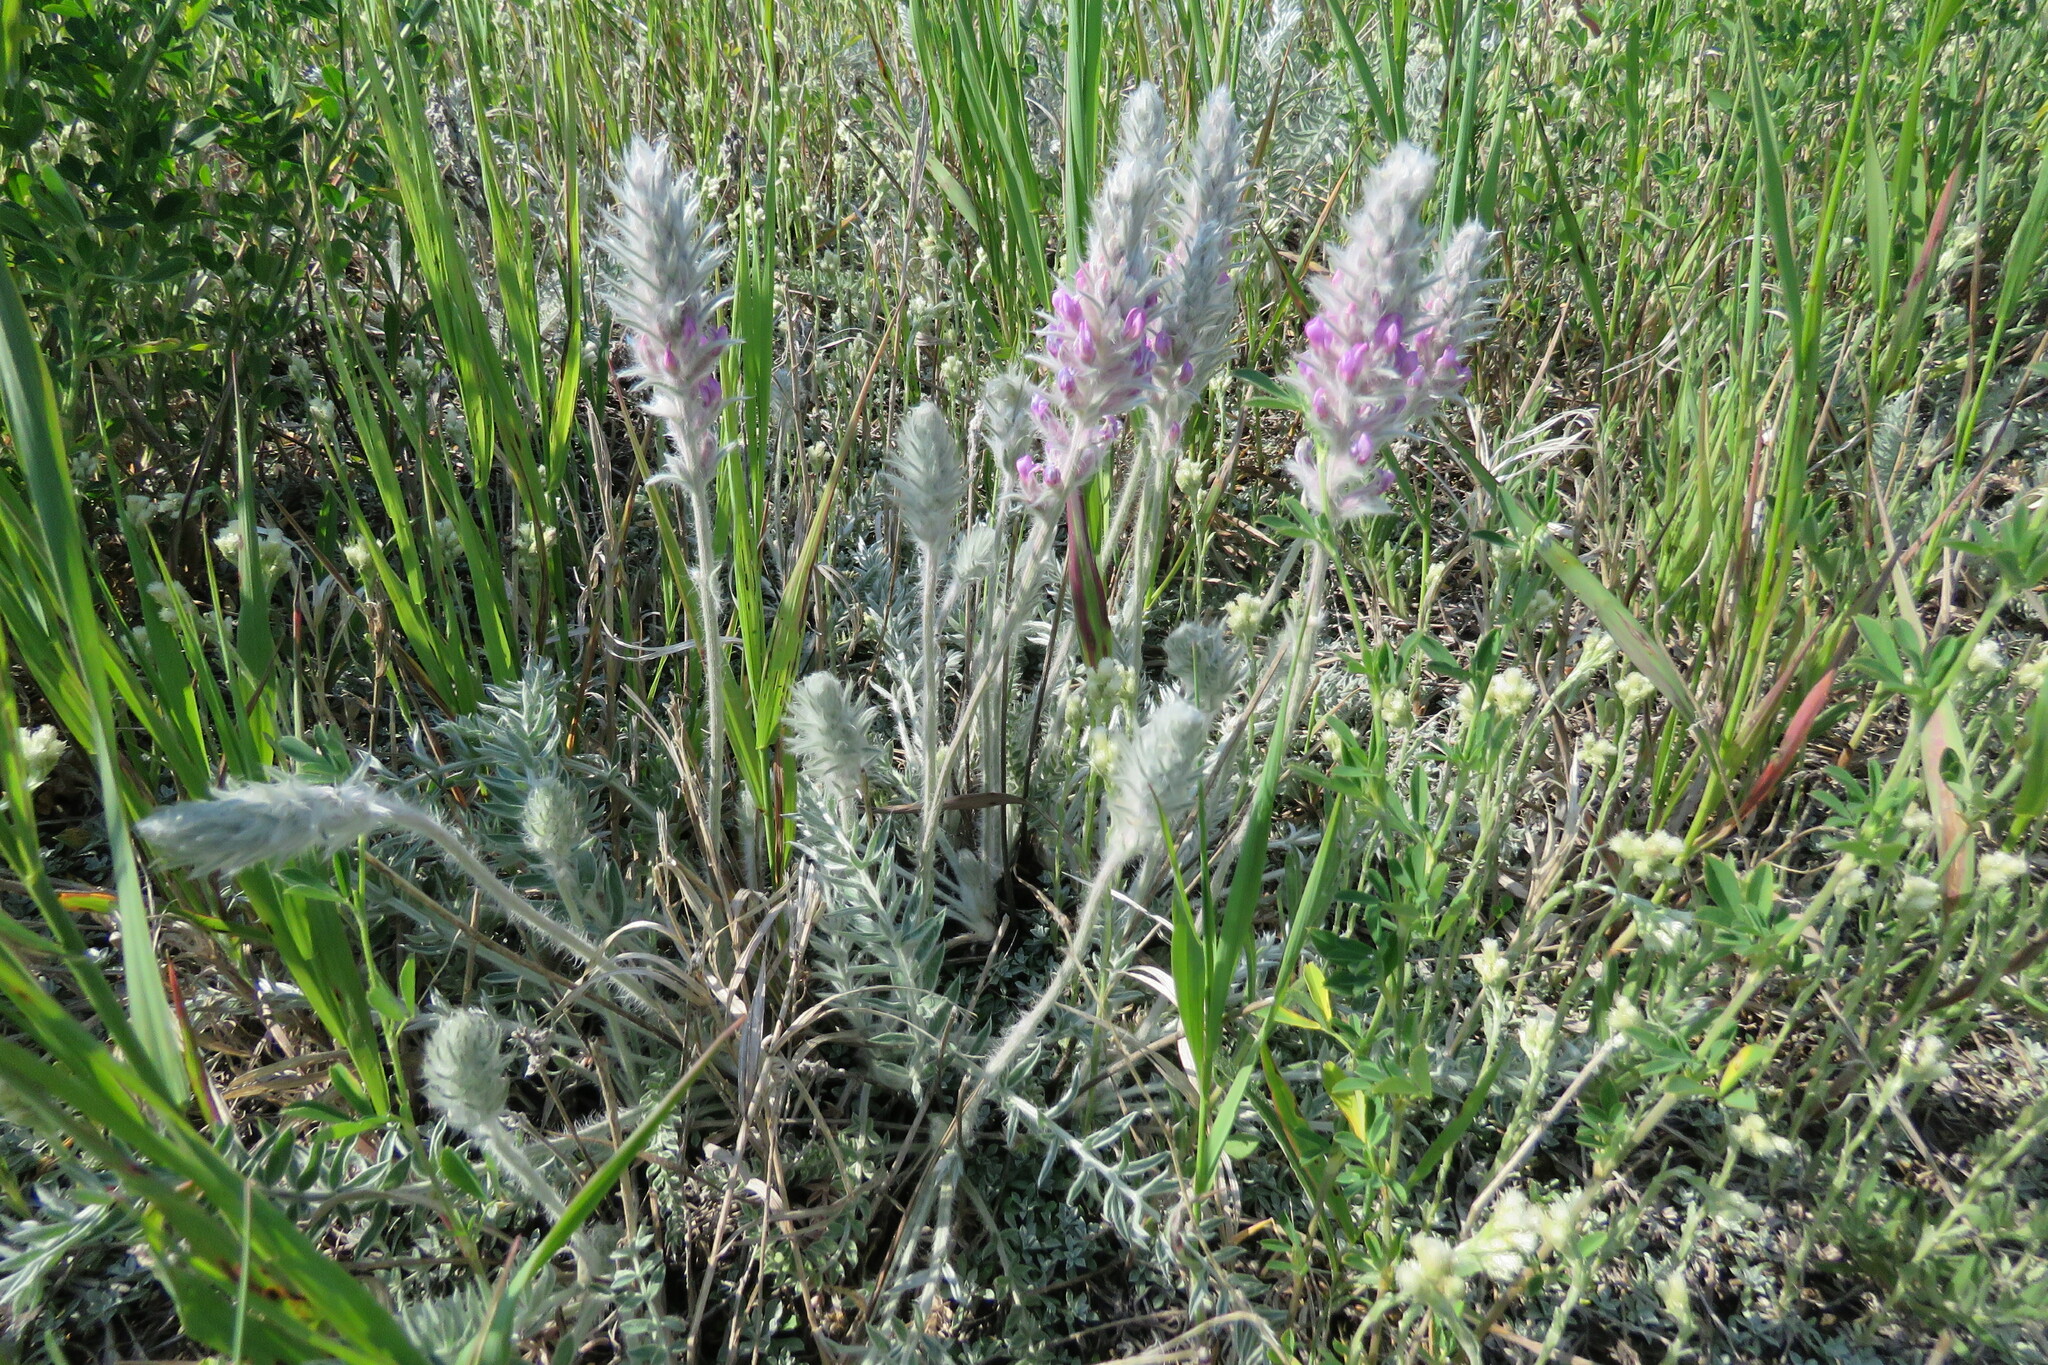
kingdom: Plantae
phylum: Tracheophyta
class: Magnoliopsida
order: Fabales
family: Fabaceae
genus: Oxytropis
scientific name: Oxytropis splendens
